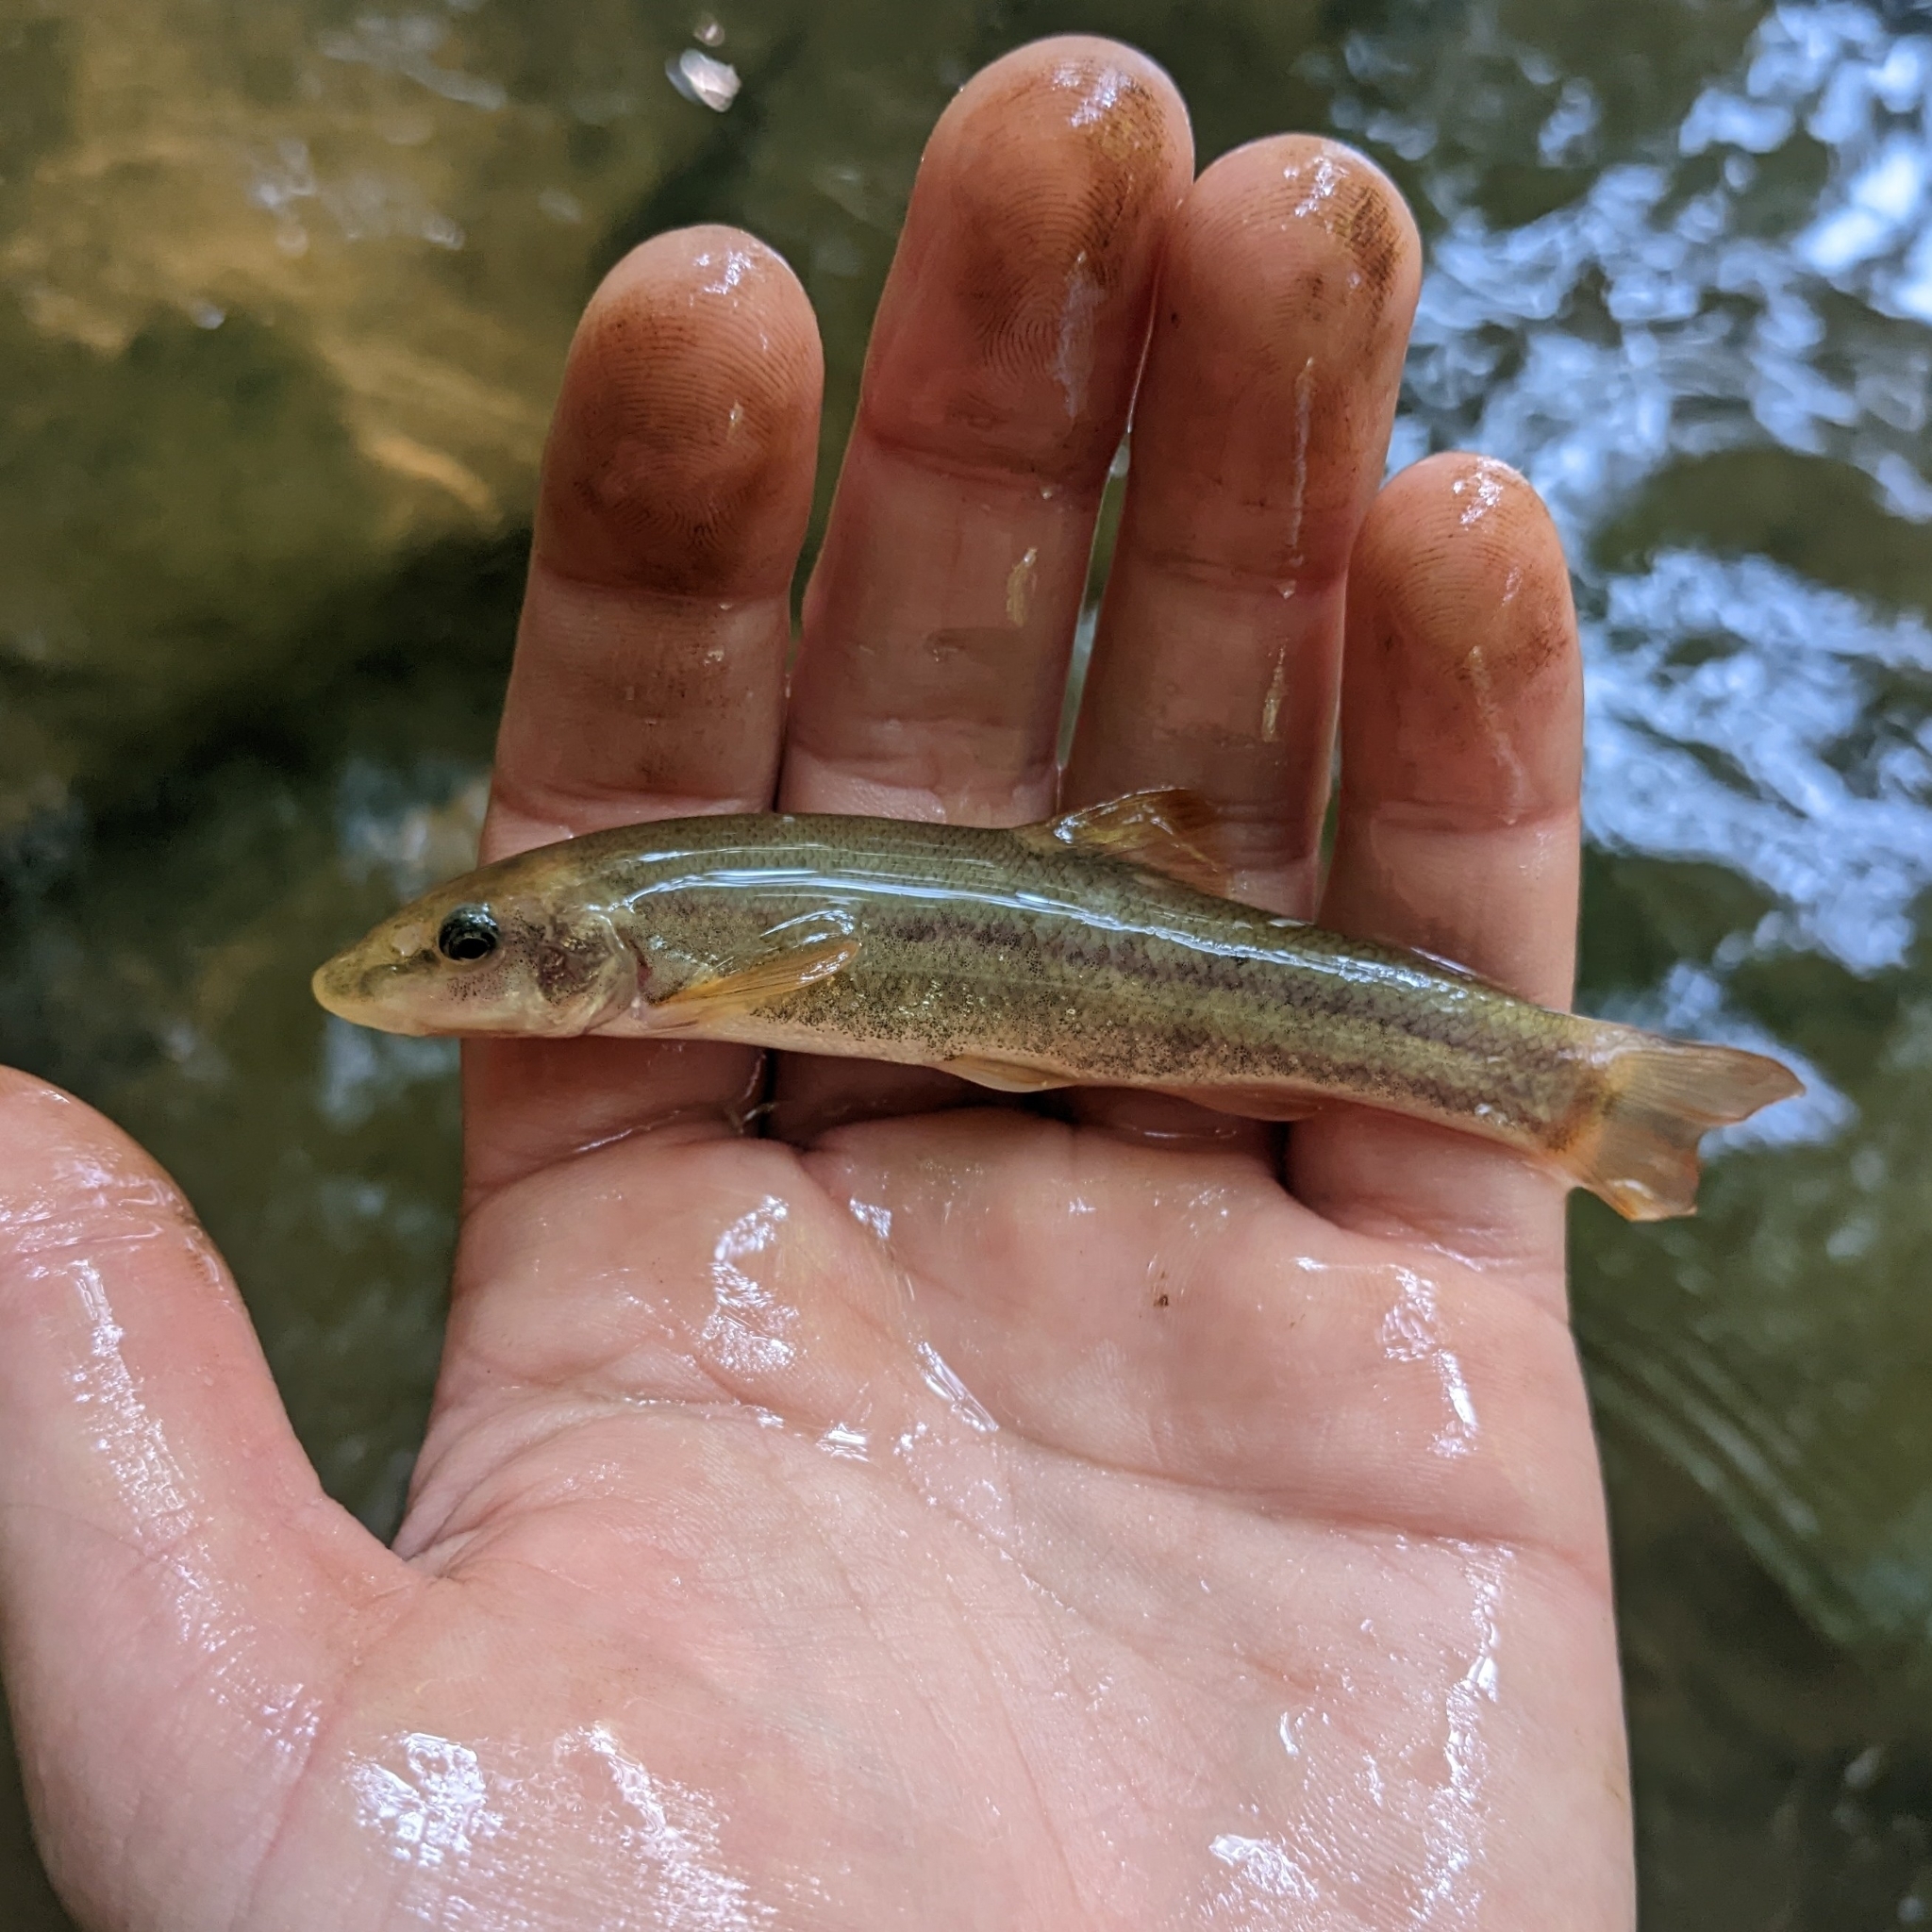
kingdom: Animalia
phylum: Chordata
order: Cypriniformes
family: Cyprinidae
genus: Rhinichthys
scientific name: Rhinichthys cataractae
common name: Longnose dace
